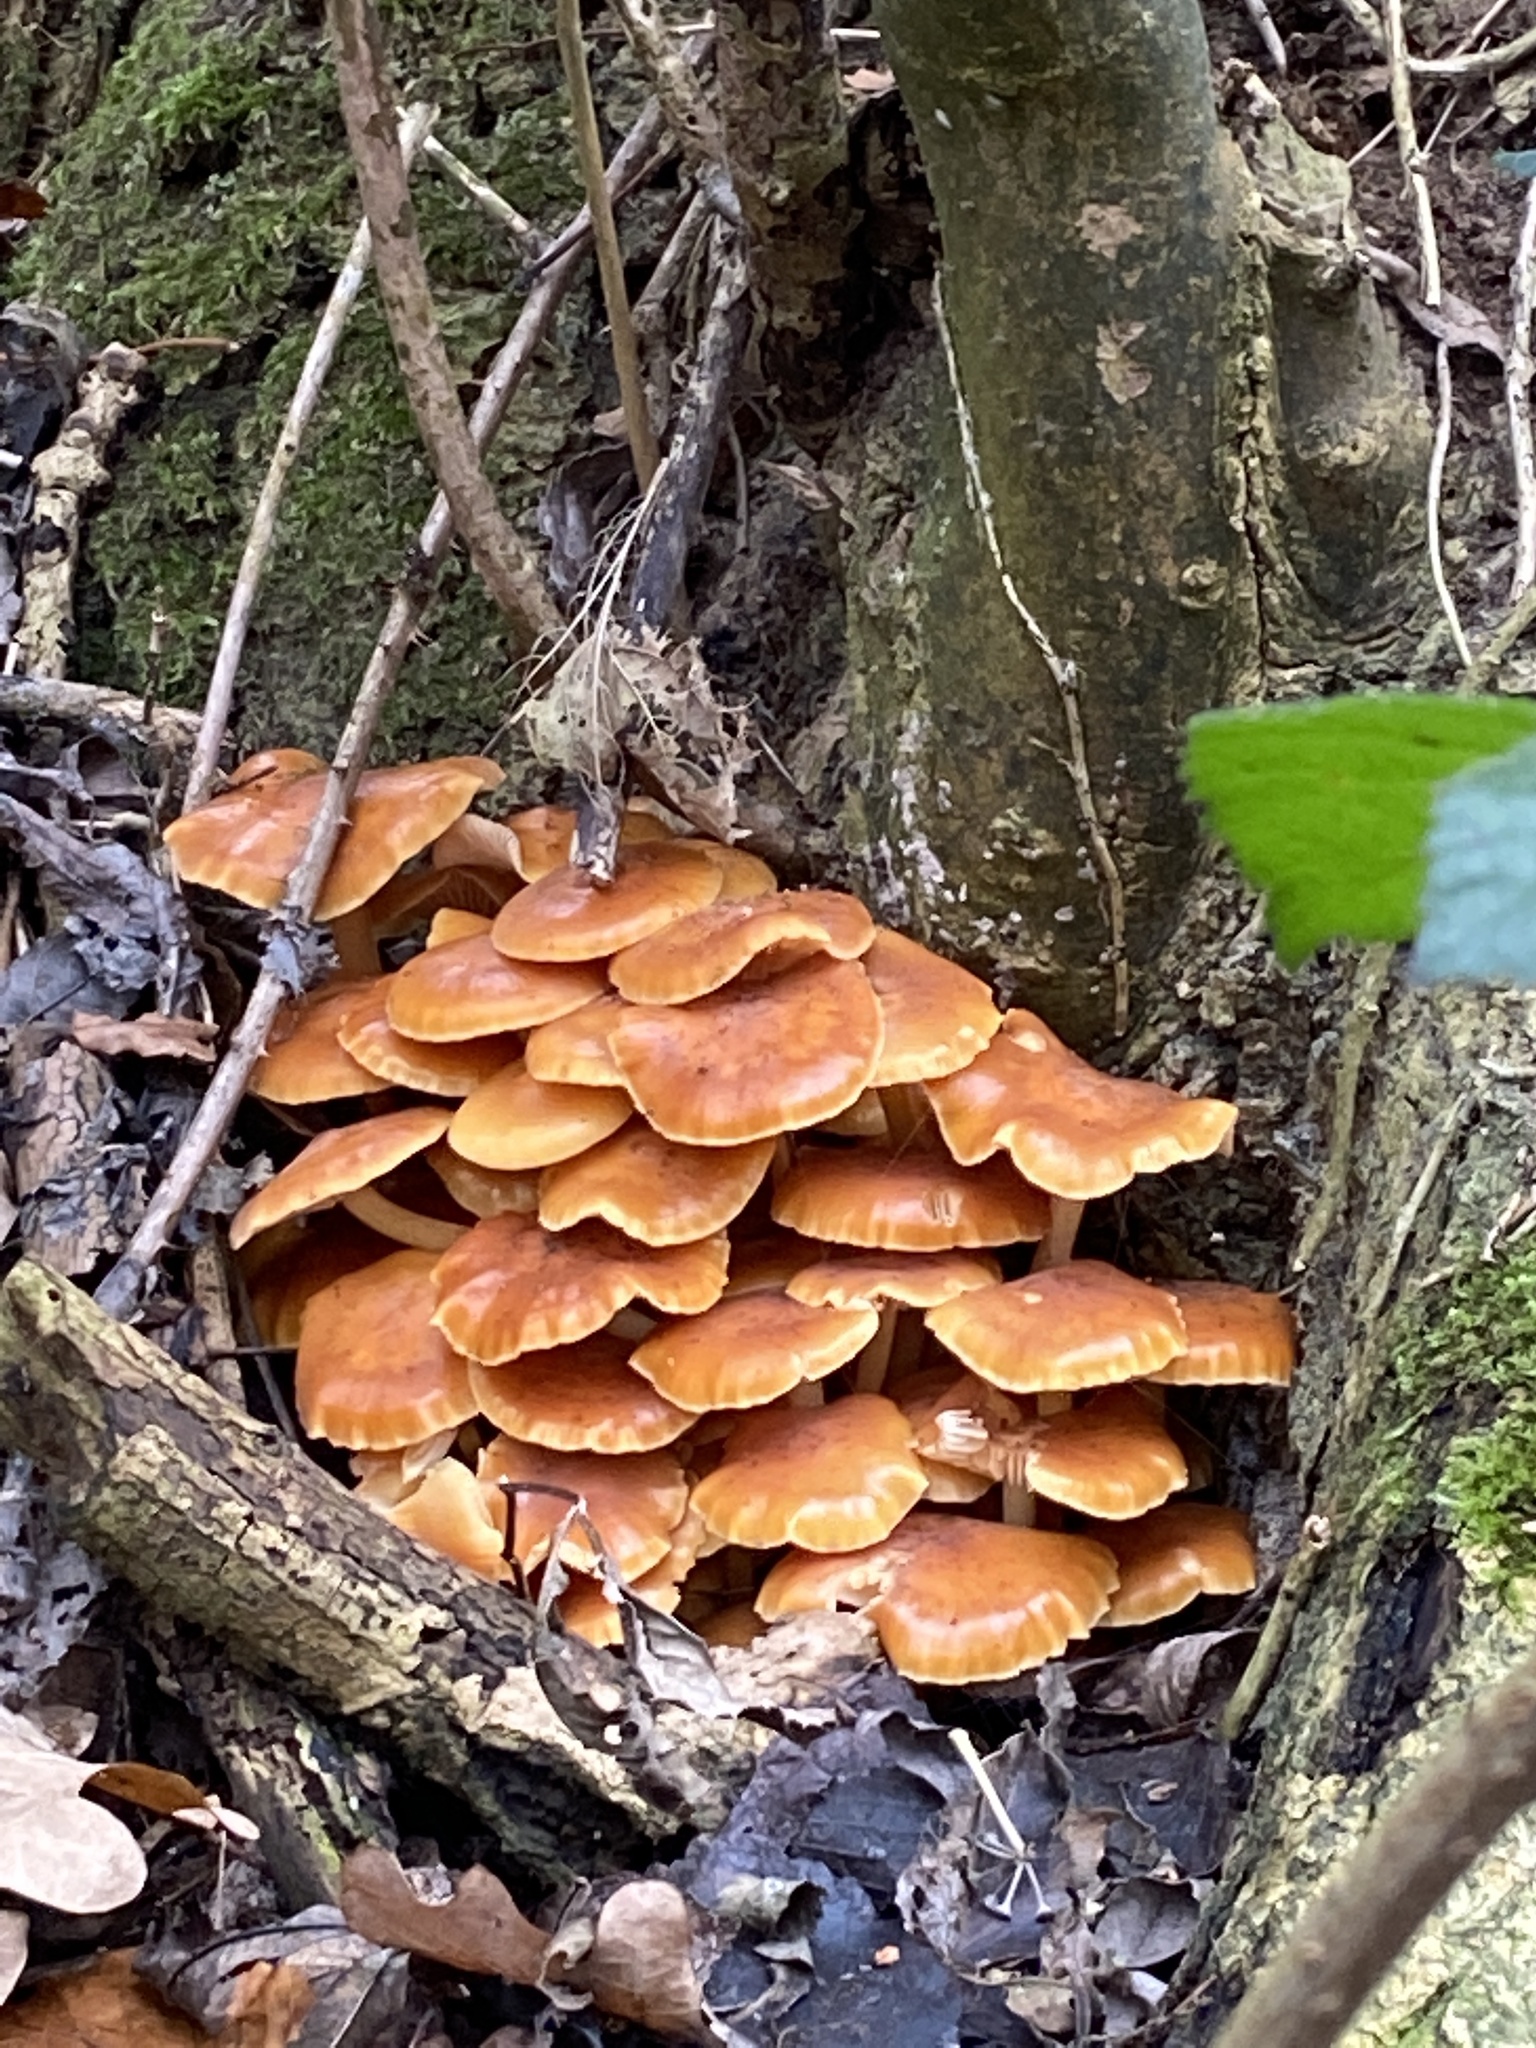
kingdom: Fungi
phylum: Basidiomycota
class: Agaricomycetes
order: Agaricales
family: Physalacriaceae
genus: Flammulina
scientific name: Flammulina
